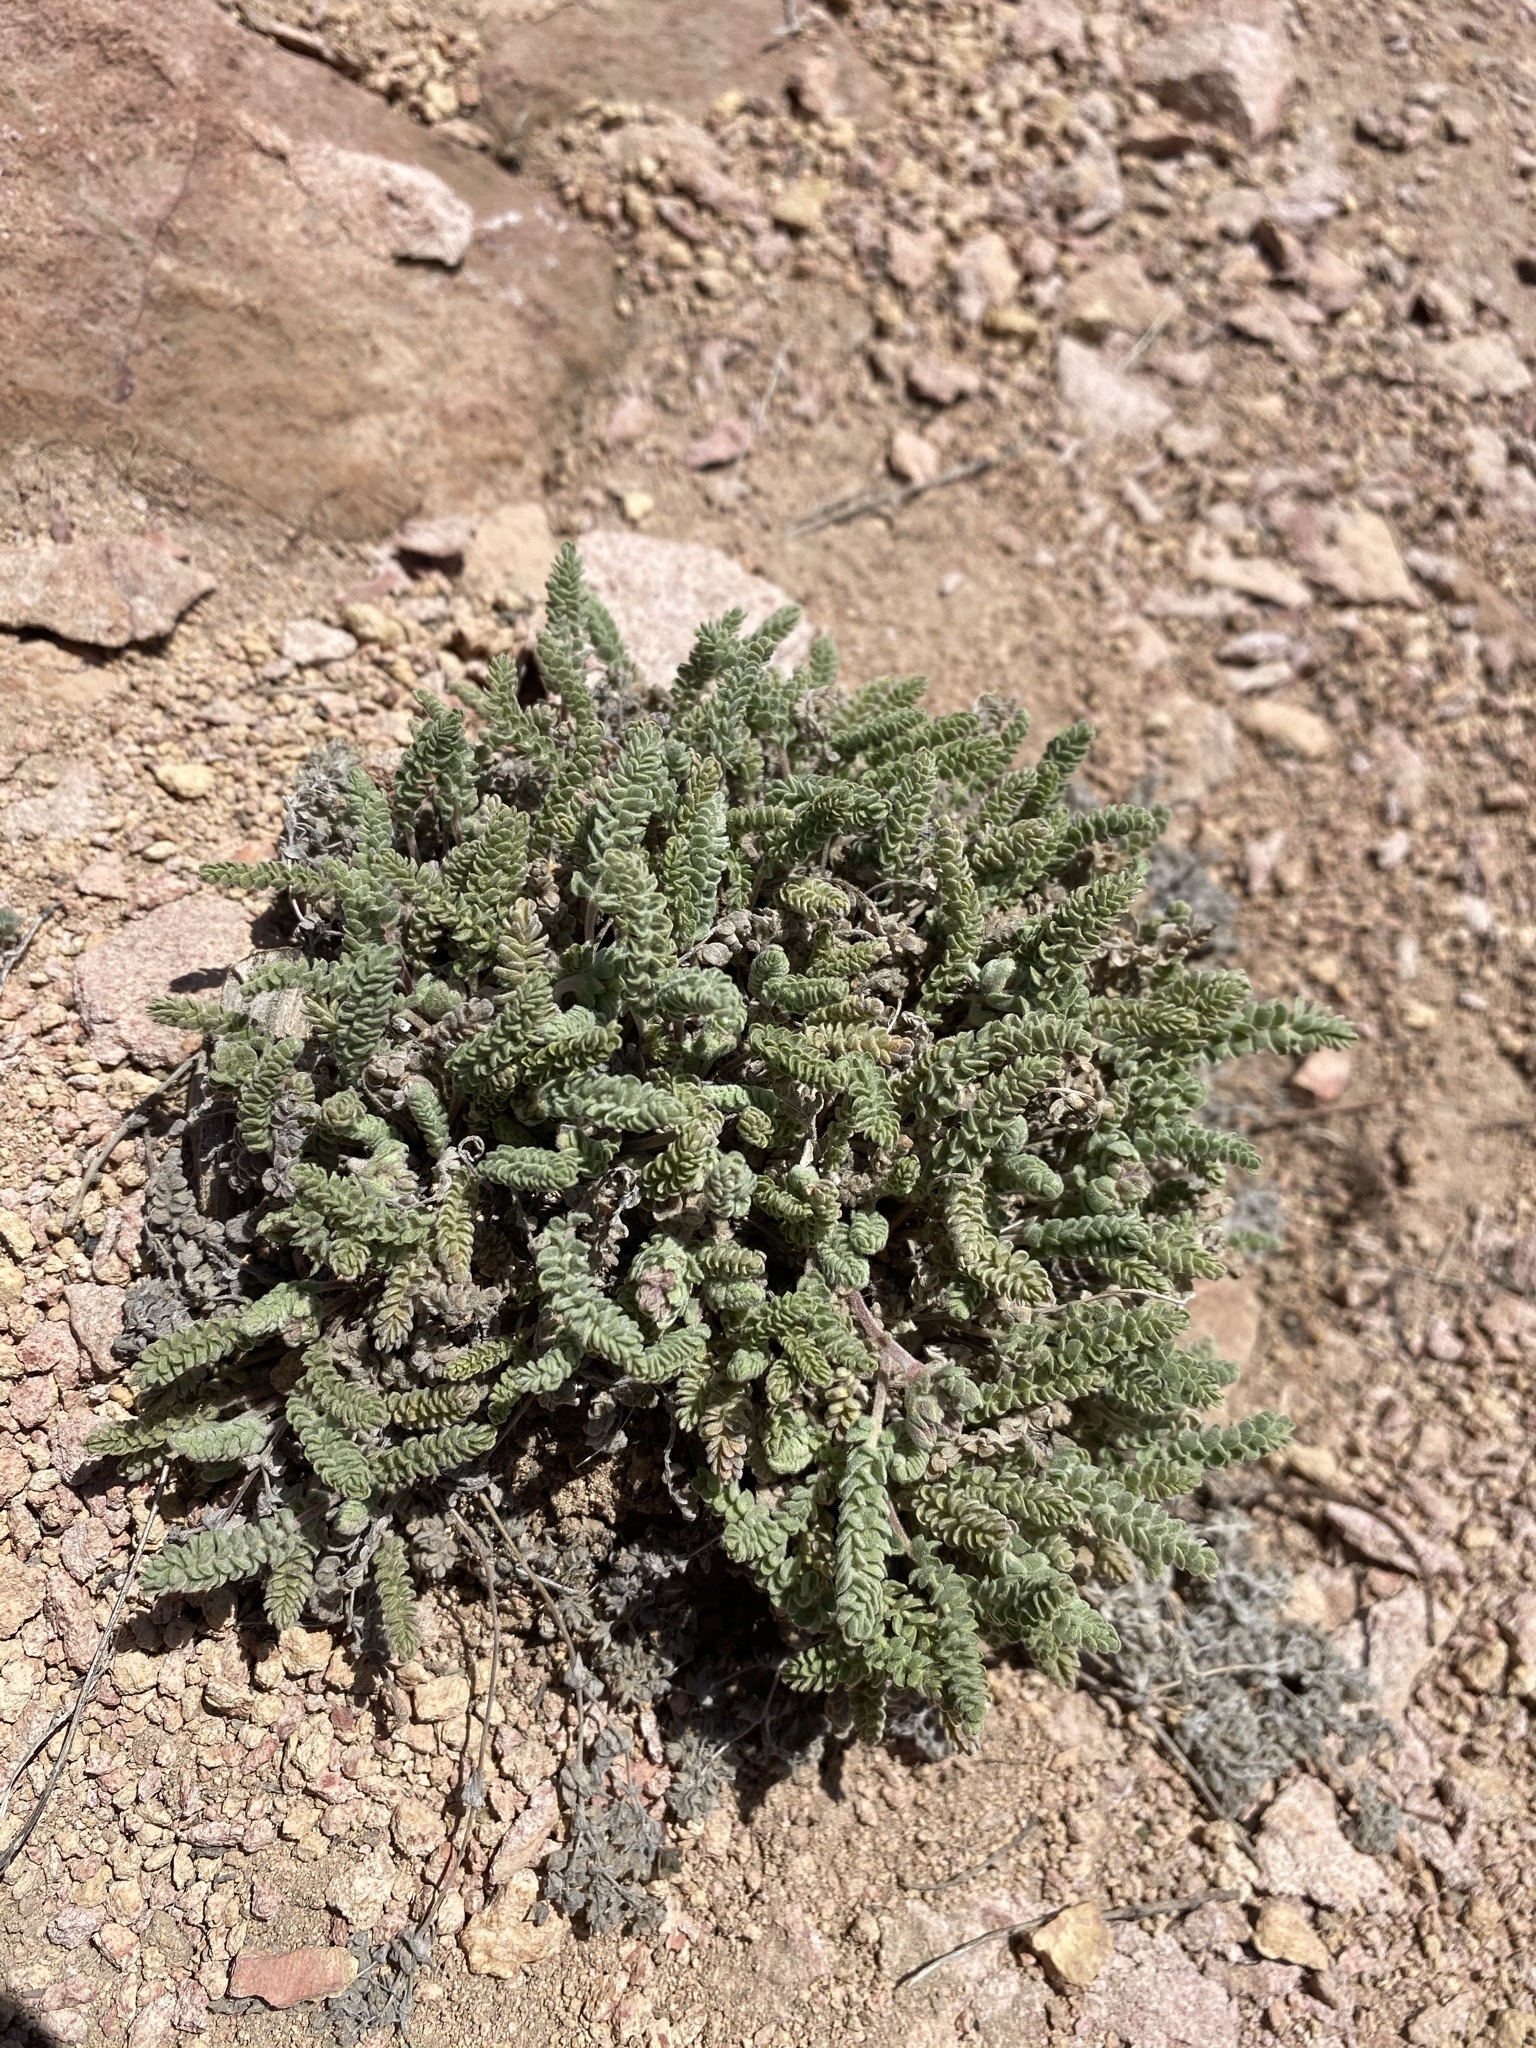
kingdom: Plantae
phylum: Tracheophyta
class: Magnoliopsida
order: Rosales
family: Rosaceae
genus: Potentilla
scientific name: Potentilla rhypara
